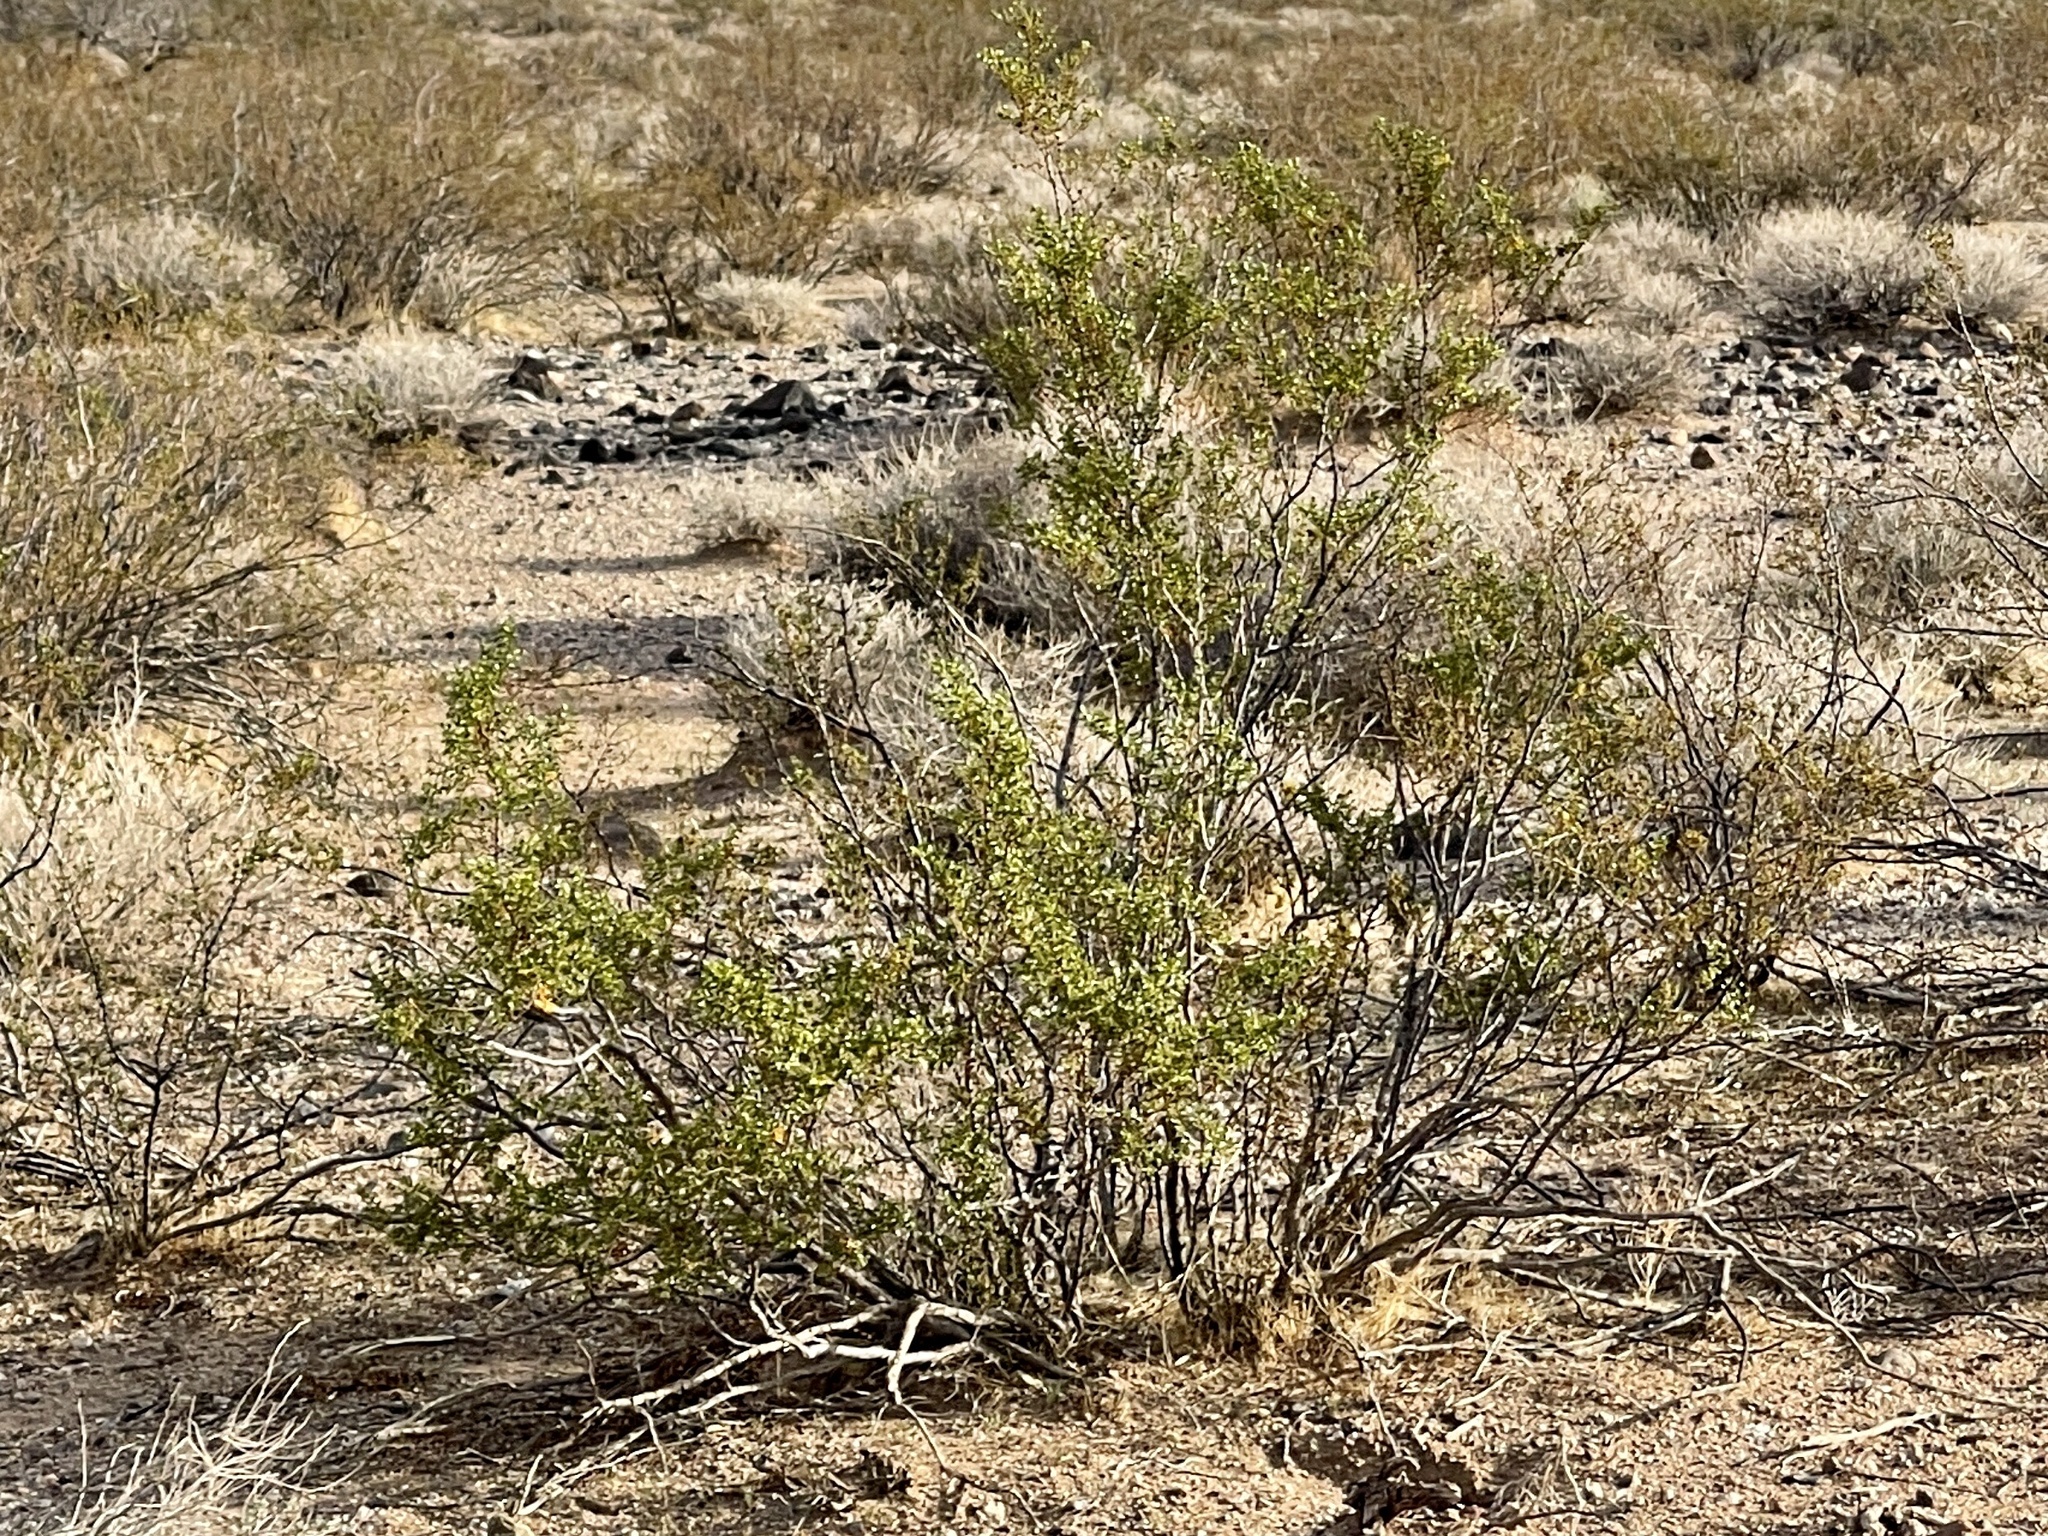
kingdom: Plantae
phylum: Tracheophyta
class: Magnoliopsida
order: Zygophyllales
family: Zygophyllaceae
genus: Larrea
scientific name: Larrea tridentata
